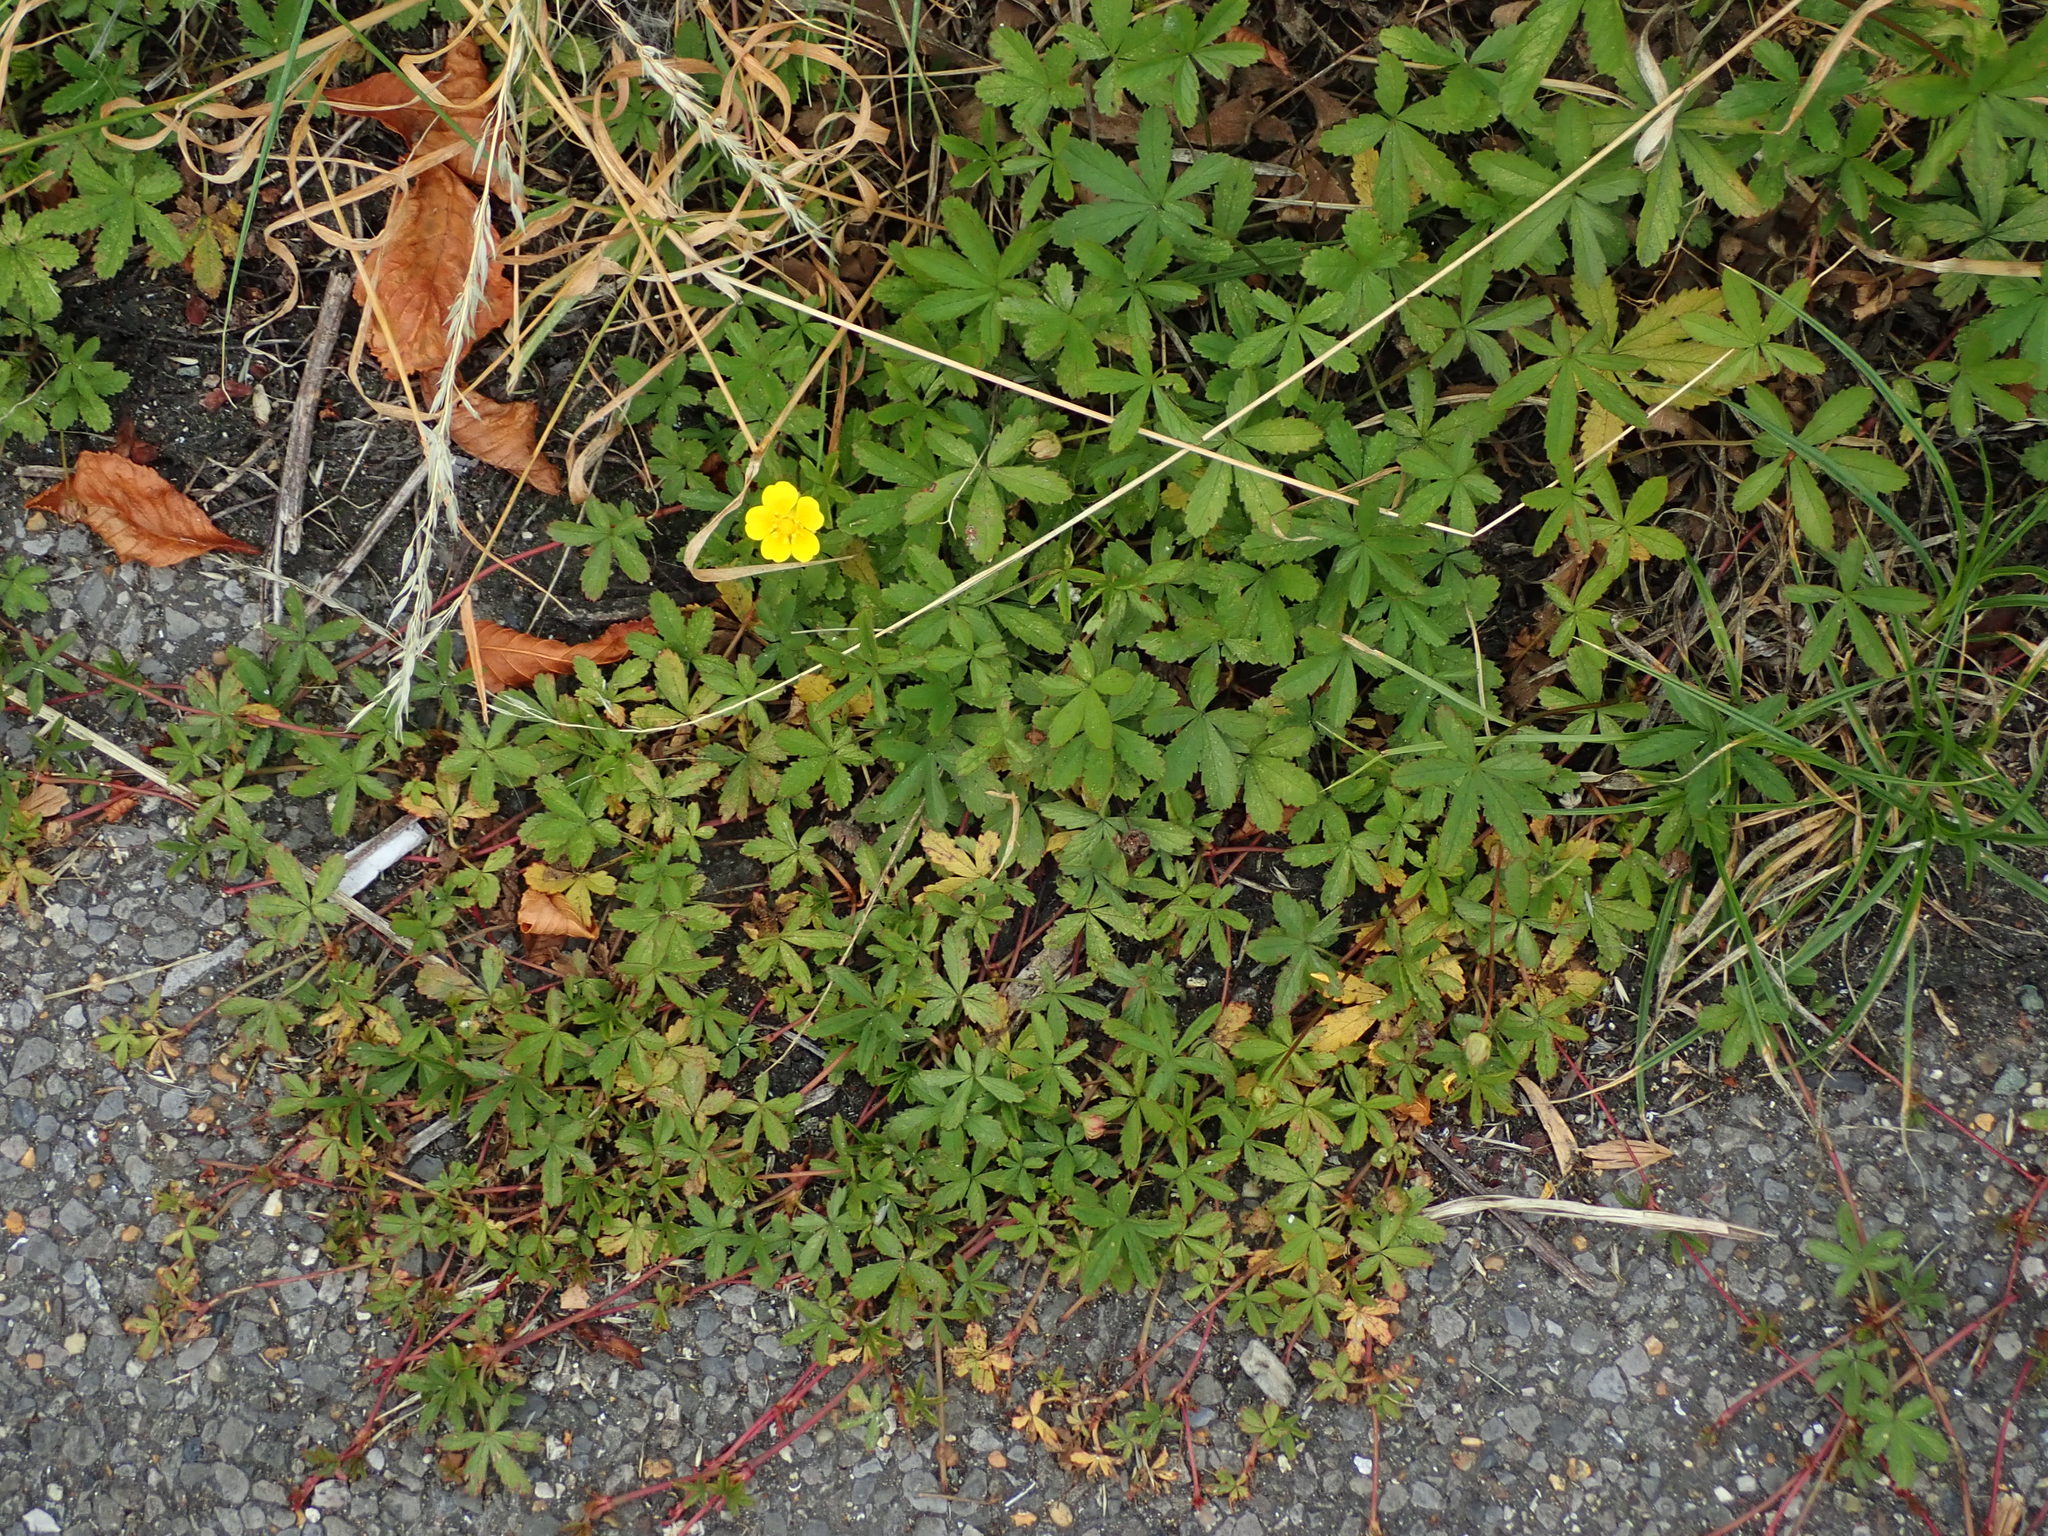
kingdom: Plantae
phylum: Tracheophyta
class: Magnoliopsida
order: Rosales
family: Rosaceae
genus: Potentilla
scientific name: Potentilla reptans
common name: Creeping cinquefoil
